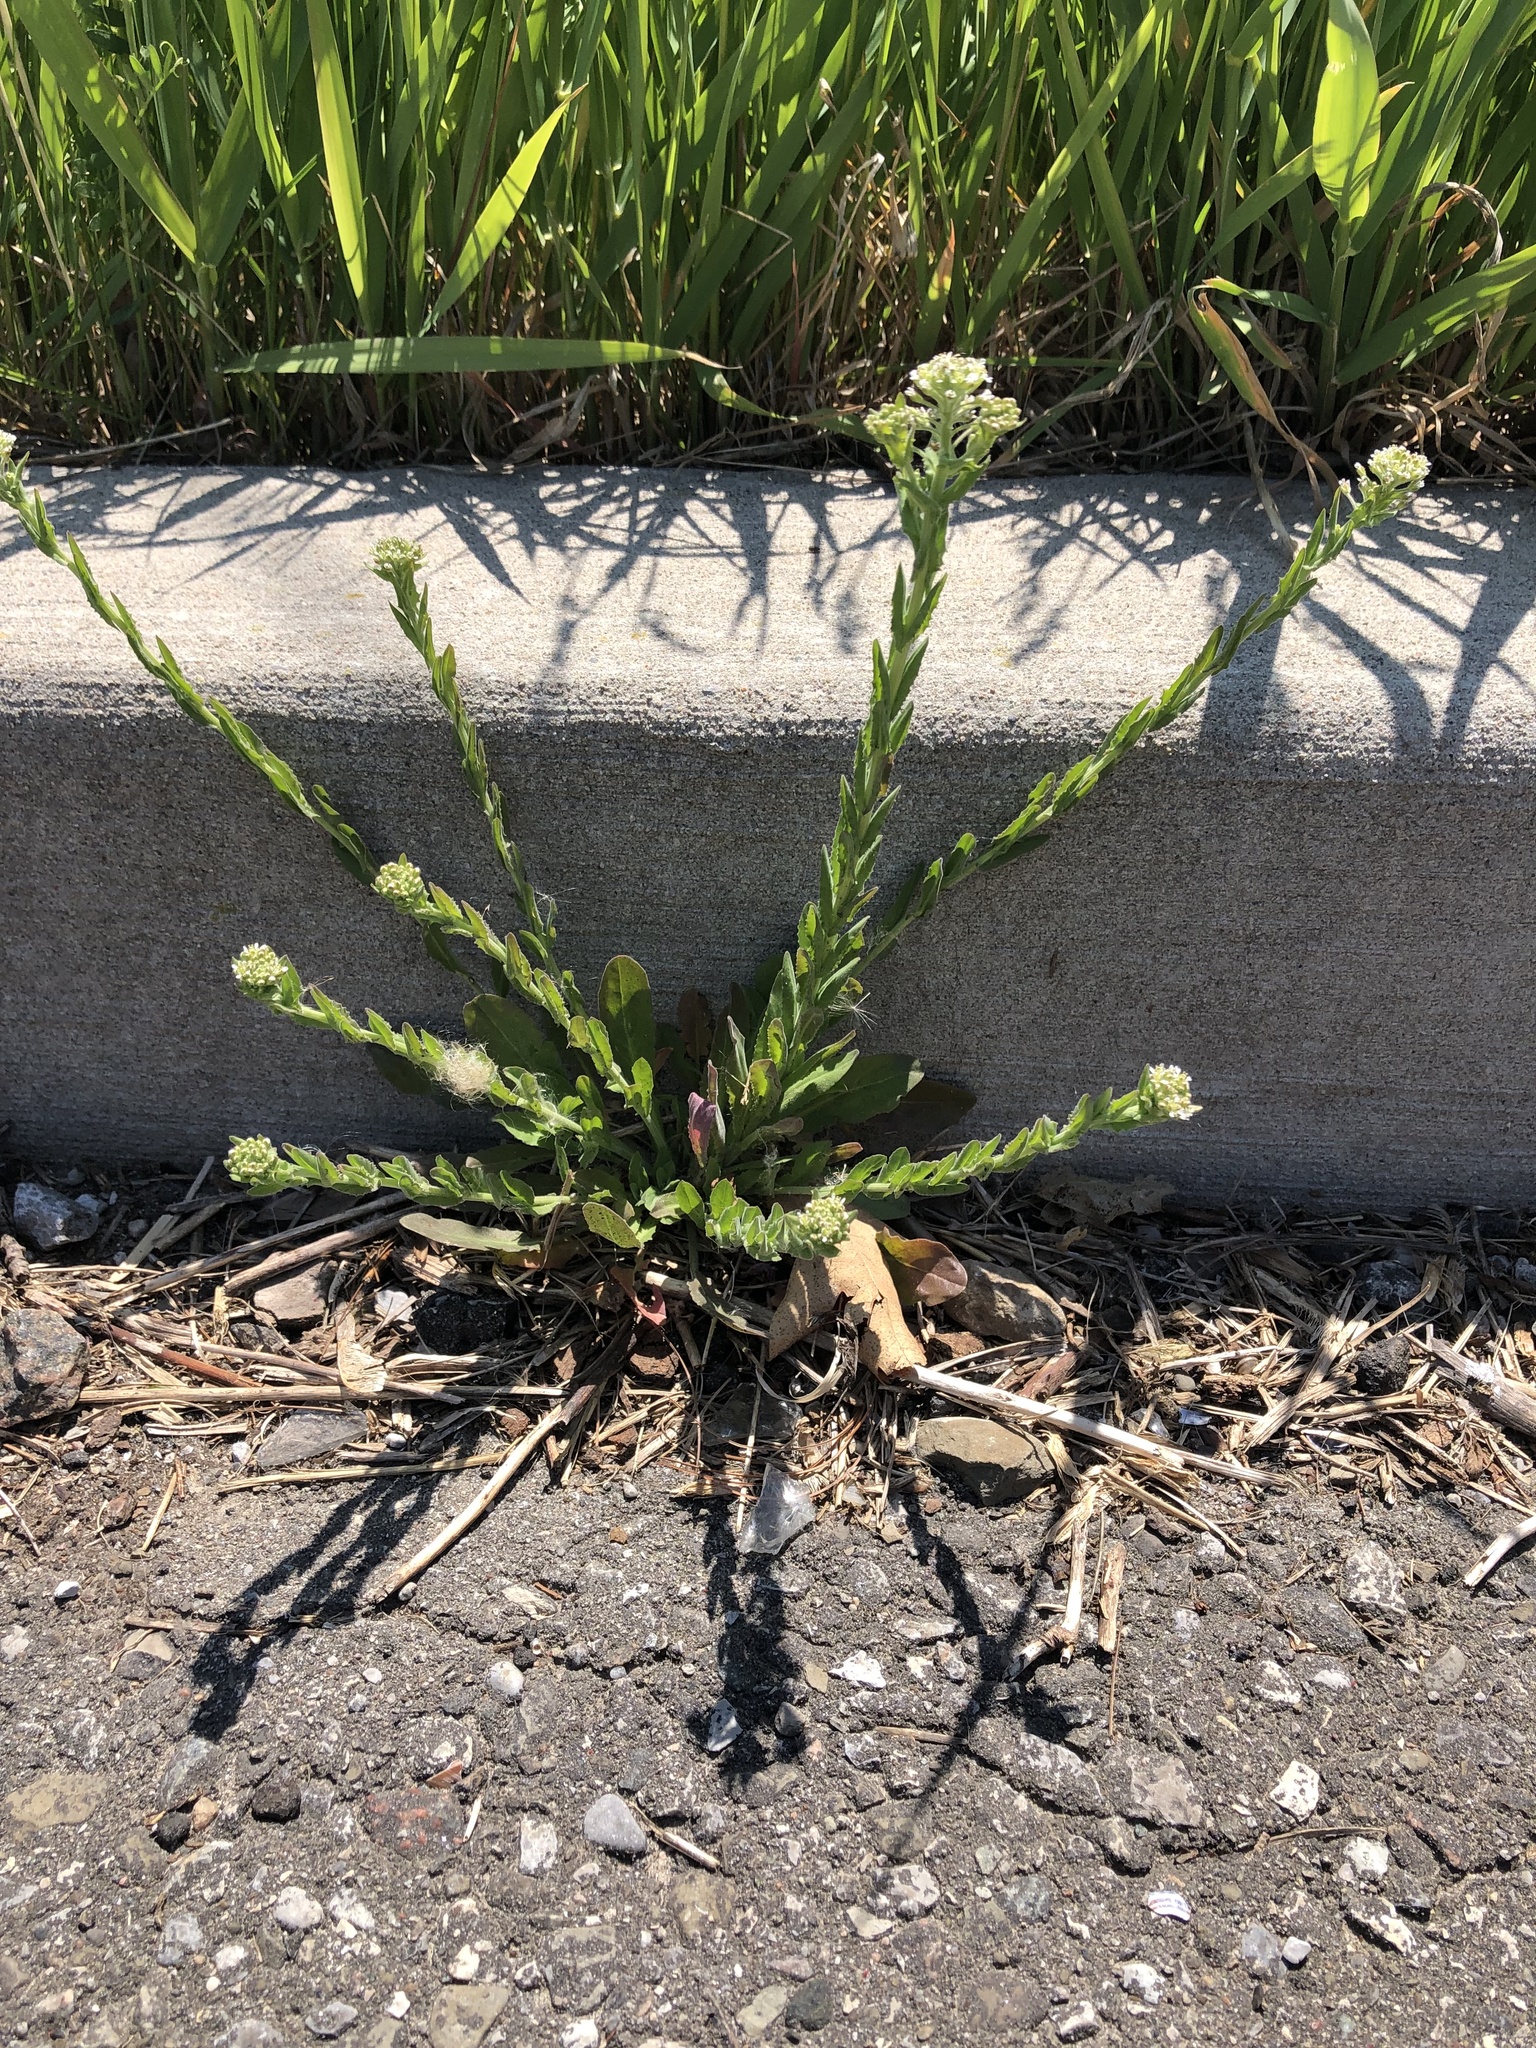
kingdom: Plantae
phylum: Tracheophyta
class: Magnoliopsida
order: Brassicales
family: Brassicaceae
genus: Lepidium
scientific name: Lepidium campestre
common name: Field pepperwort
